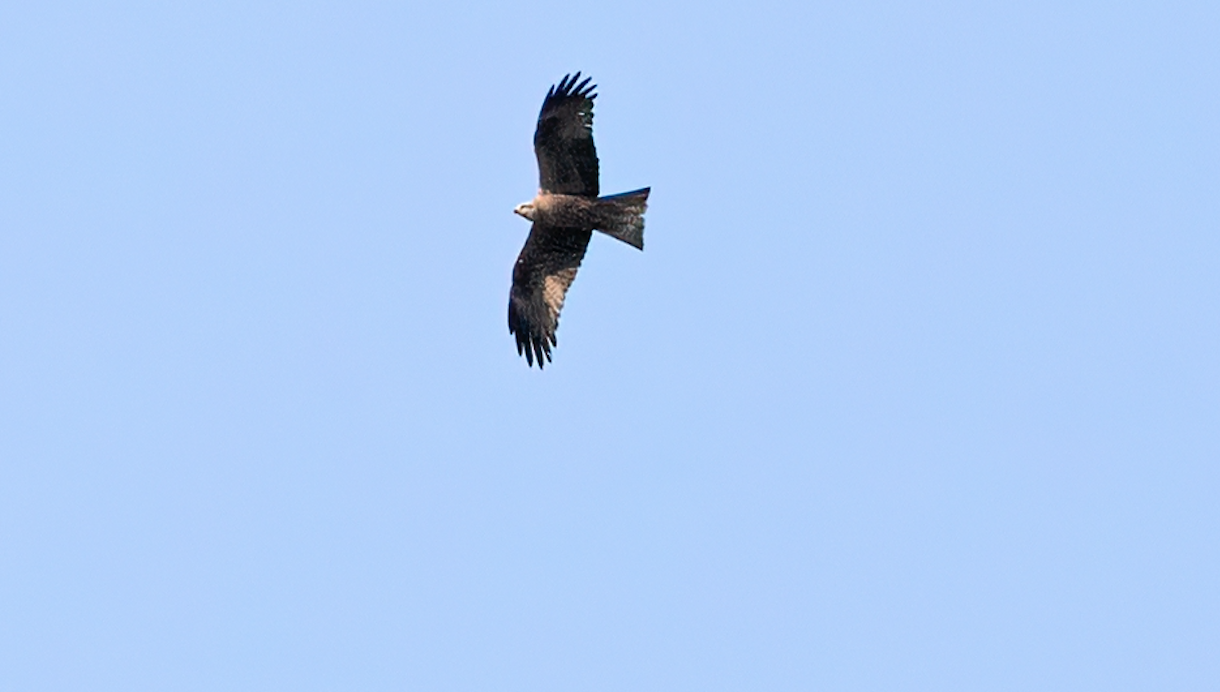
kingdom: Animalia
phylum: Chordata
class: Aves
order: Accipitriformes
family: Accipitridae
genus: Milvus
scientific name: Milvus migrans
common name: Black kite
